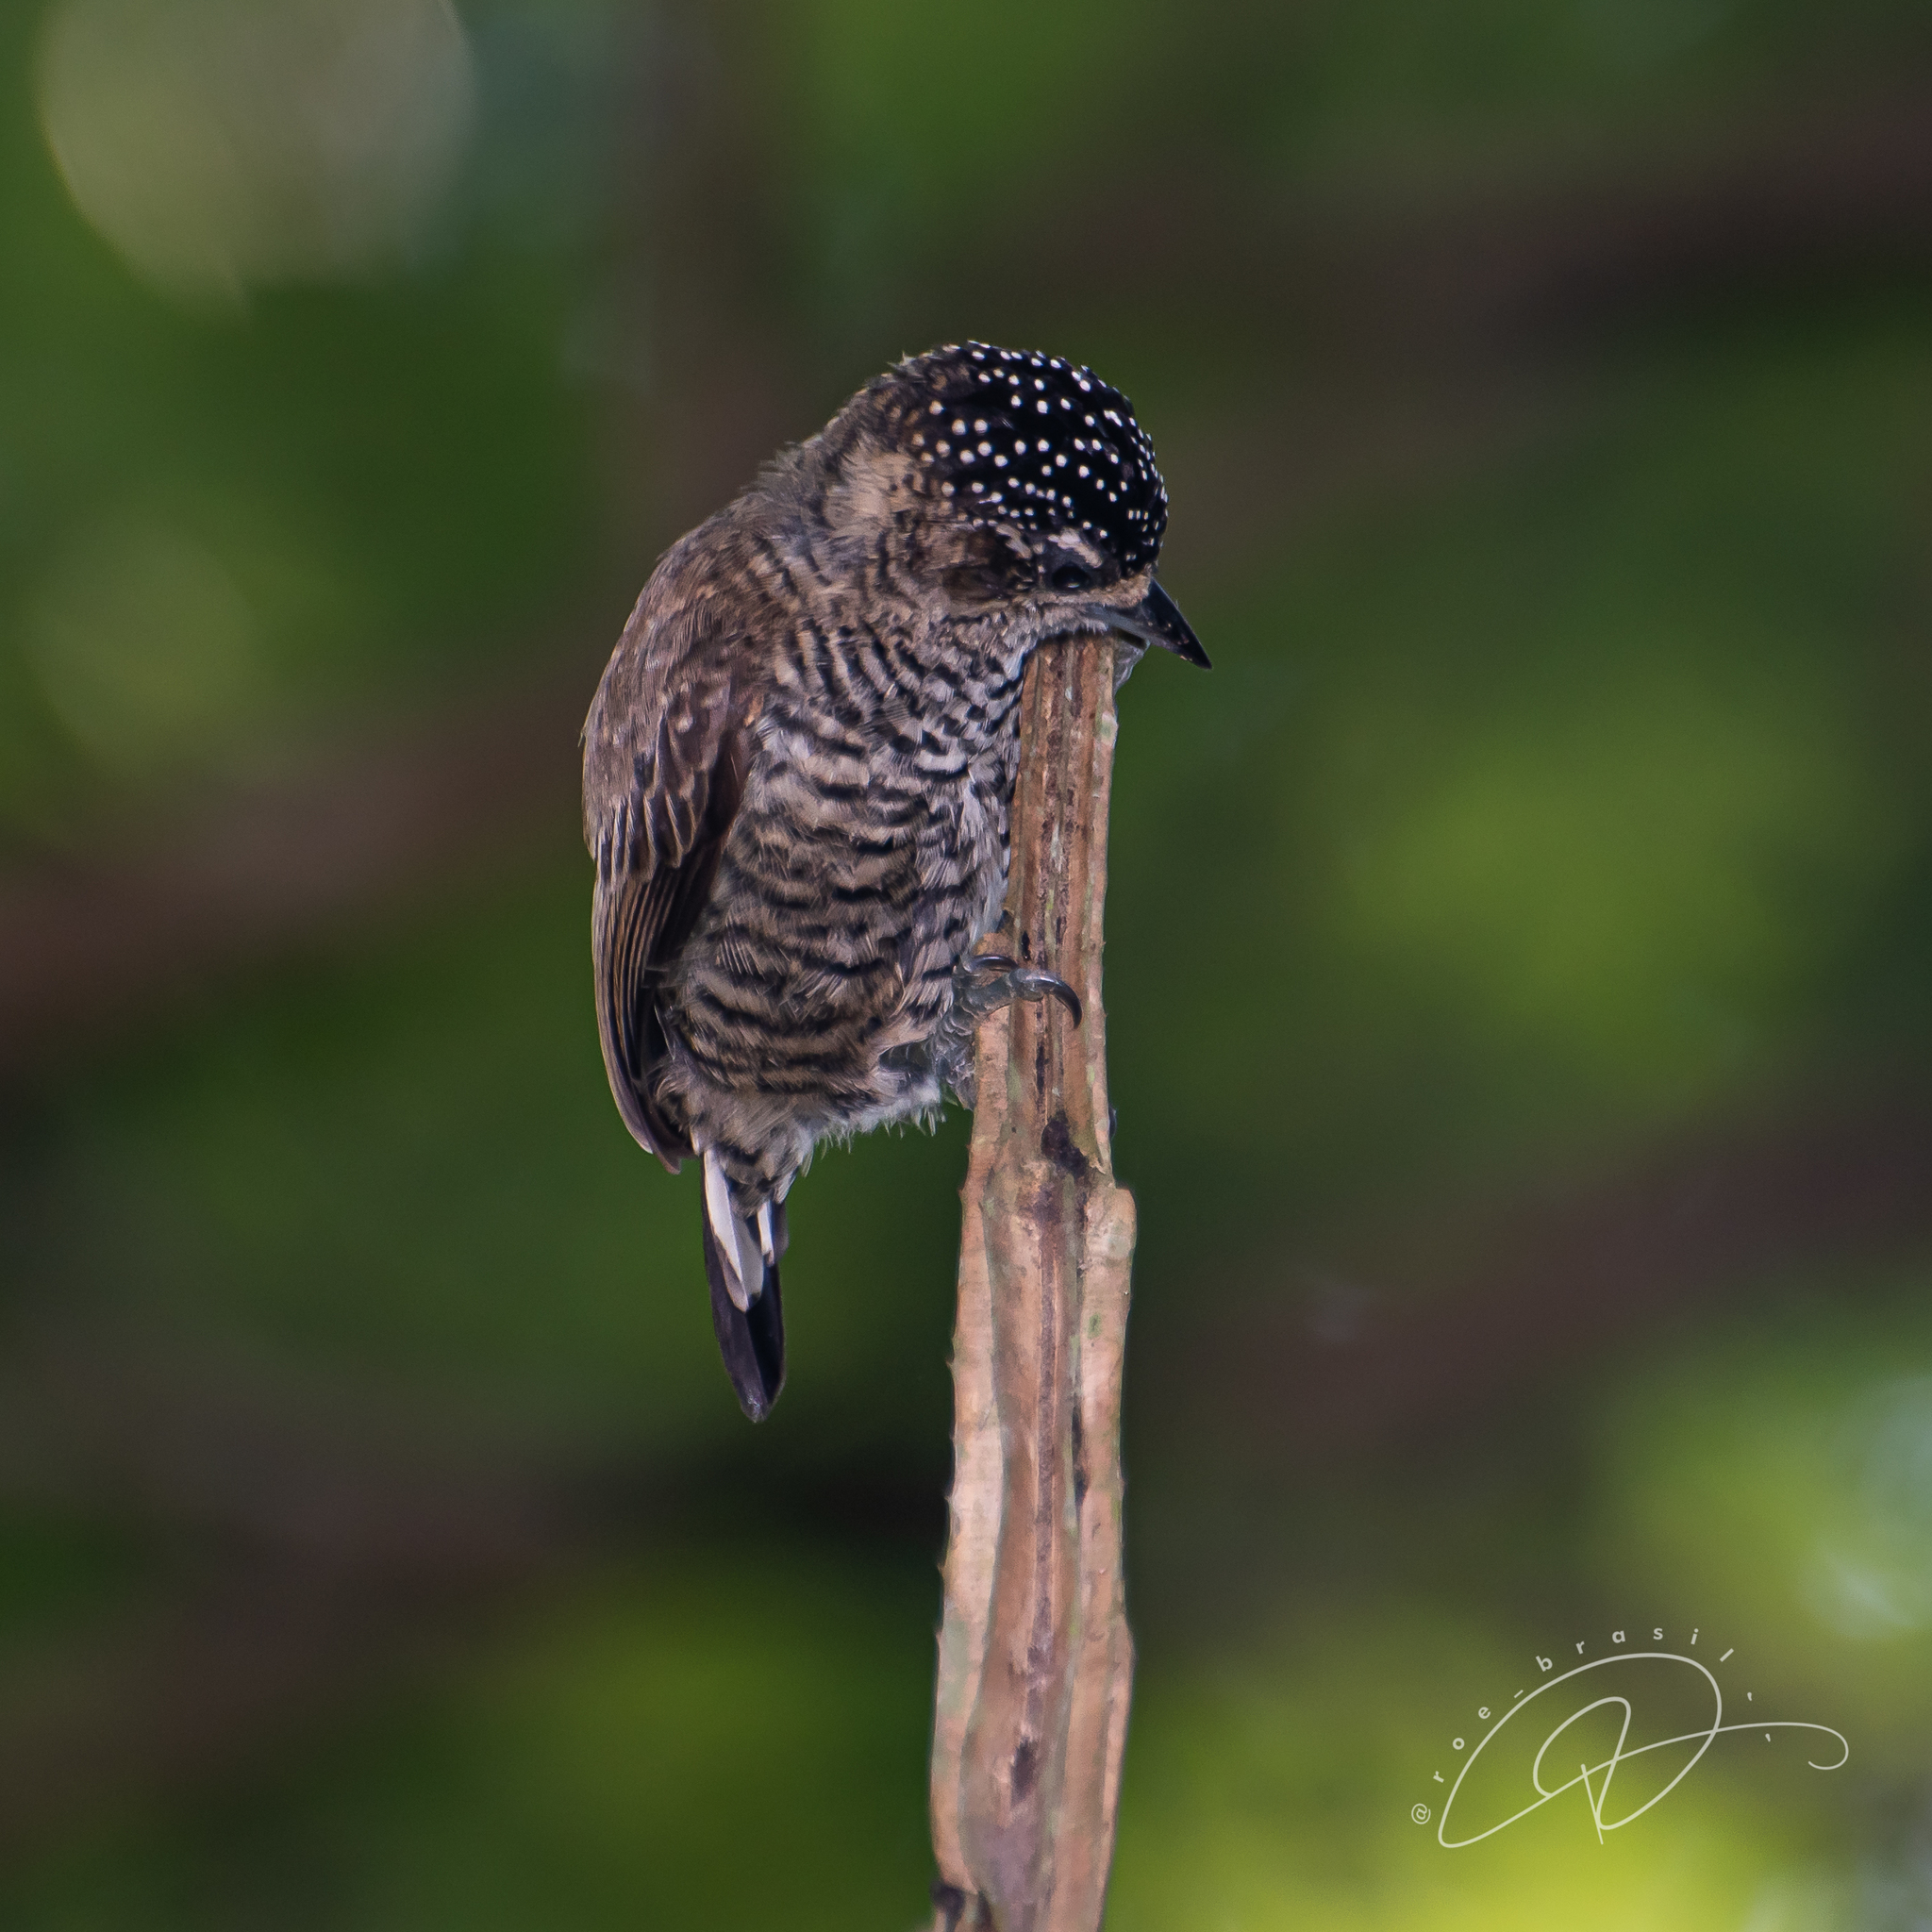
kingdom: Animalia
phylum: Chordata
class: Aves
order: Piciformes
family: Picidae
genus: Picumnus
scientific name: Picumnus cirratus
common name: White-barred piculet
